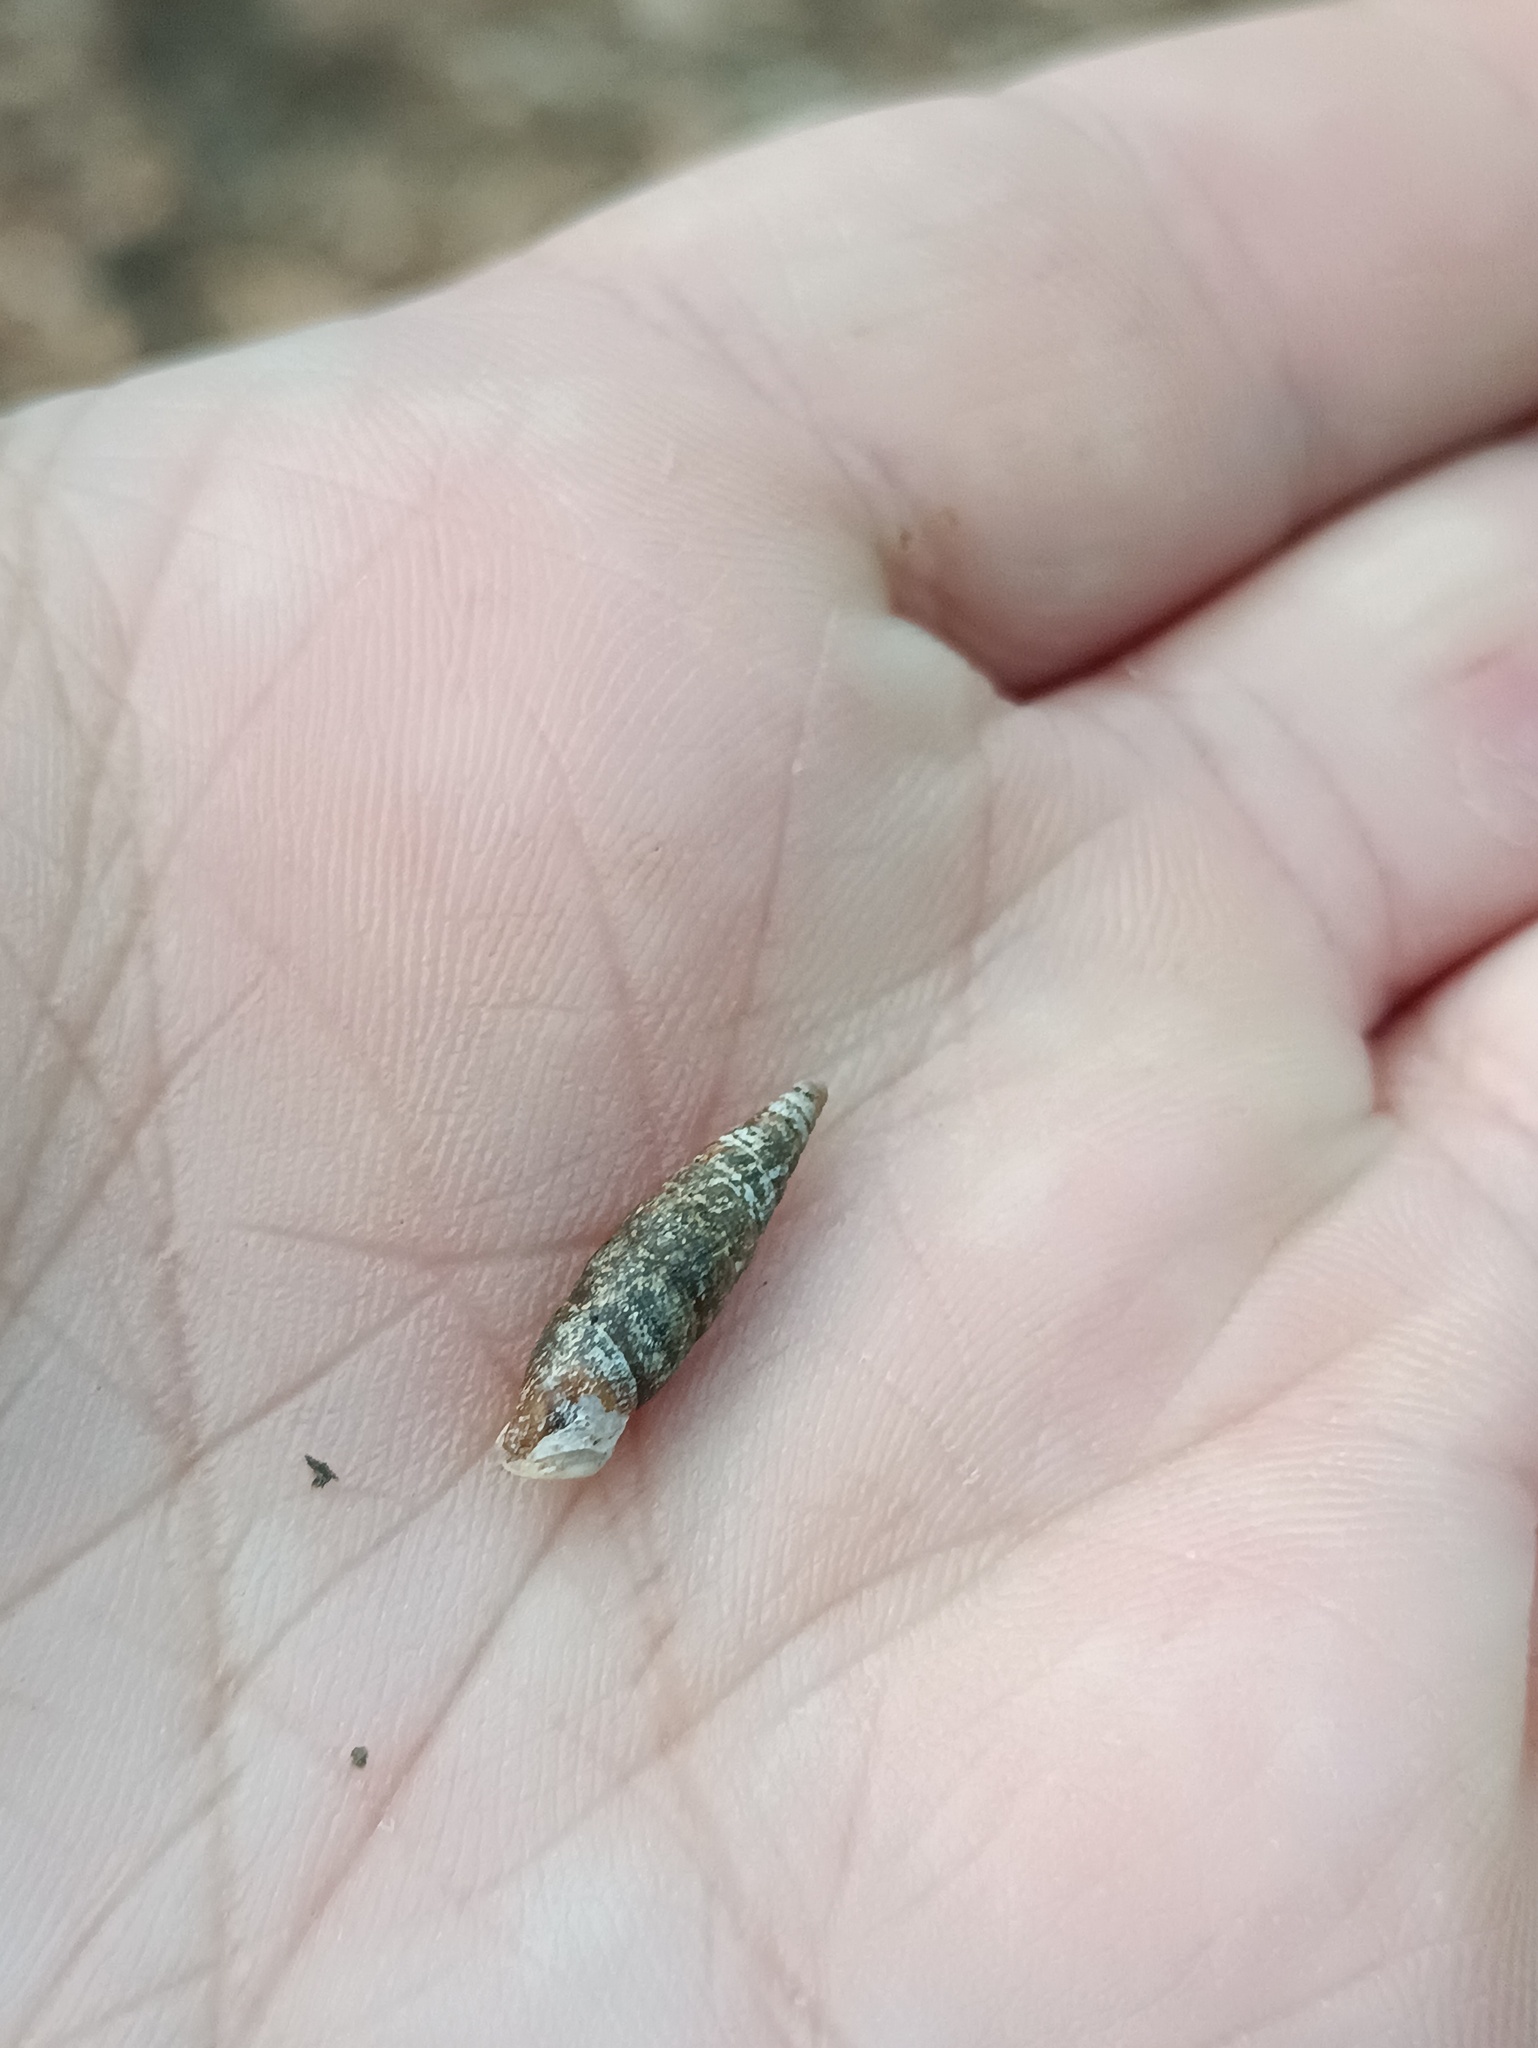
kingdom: Animalia
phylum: Mollusca
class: Gastropoda
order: Stylommatophora
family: Clausiliidae
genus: Cochlodina
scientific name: Cochlodina laminata
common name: Plaited door snail
